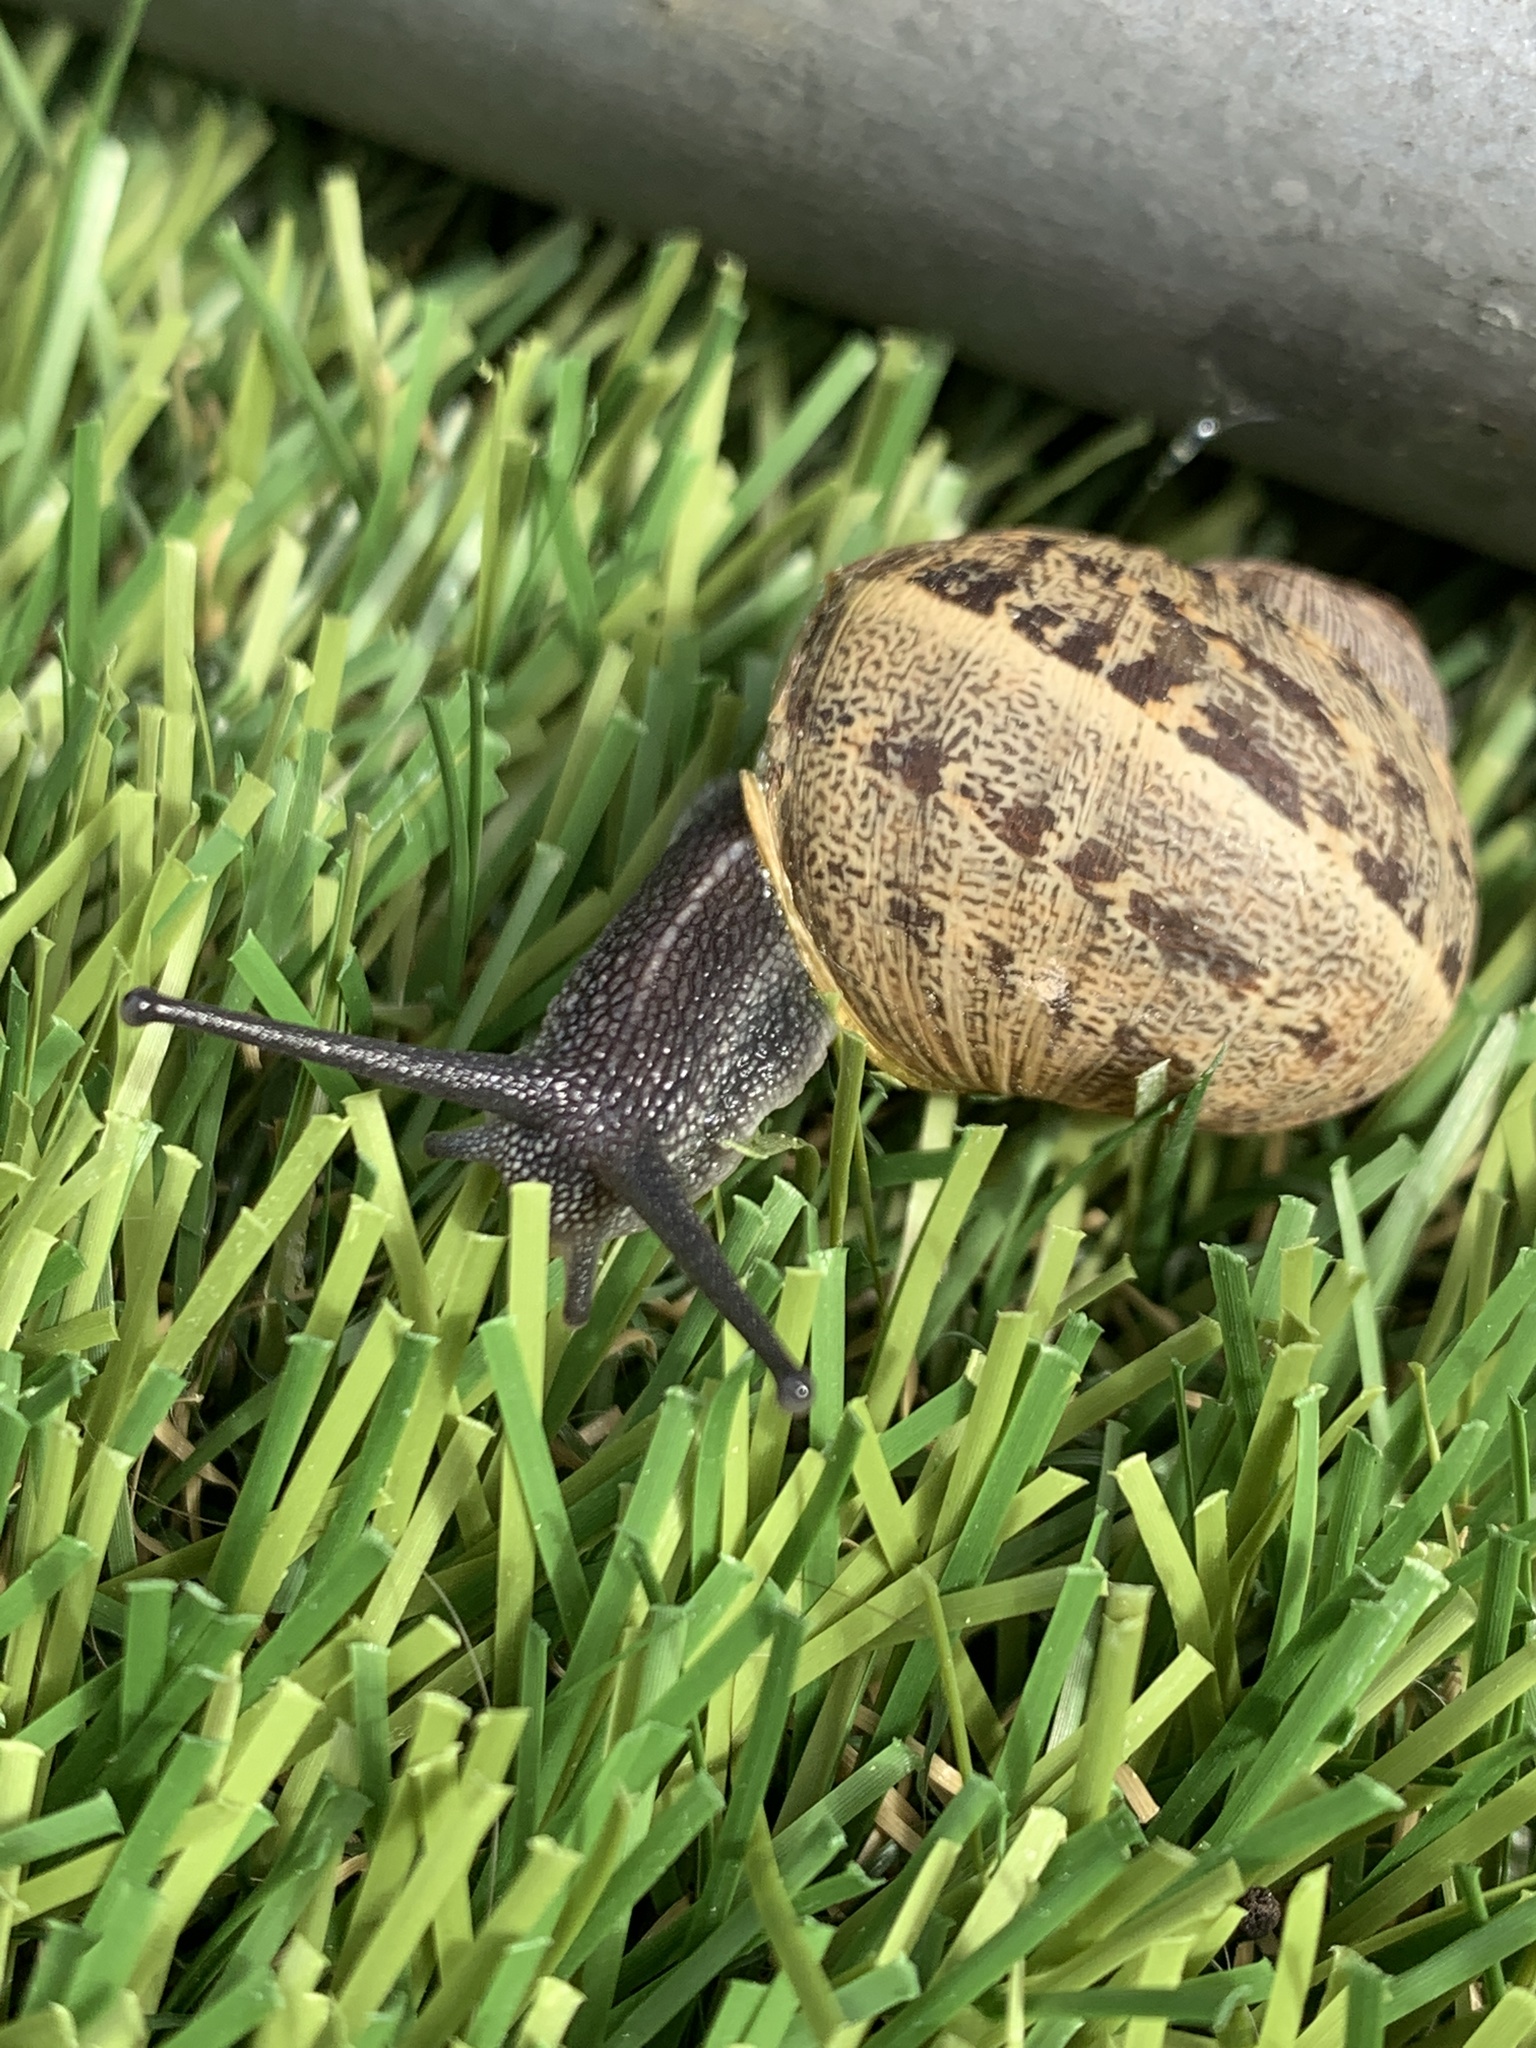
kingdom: Animalia
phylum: Mollusca
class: Gastropoda
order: Stylommatophora
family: Helicidae
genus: Cornu
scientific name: Cornu aspersum
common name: Brown garden snail
